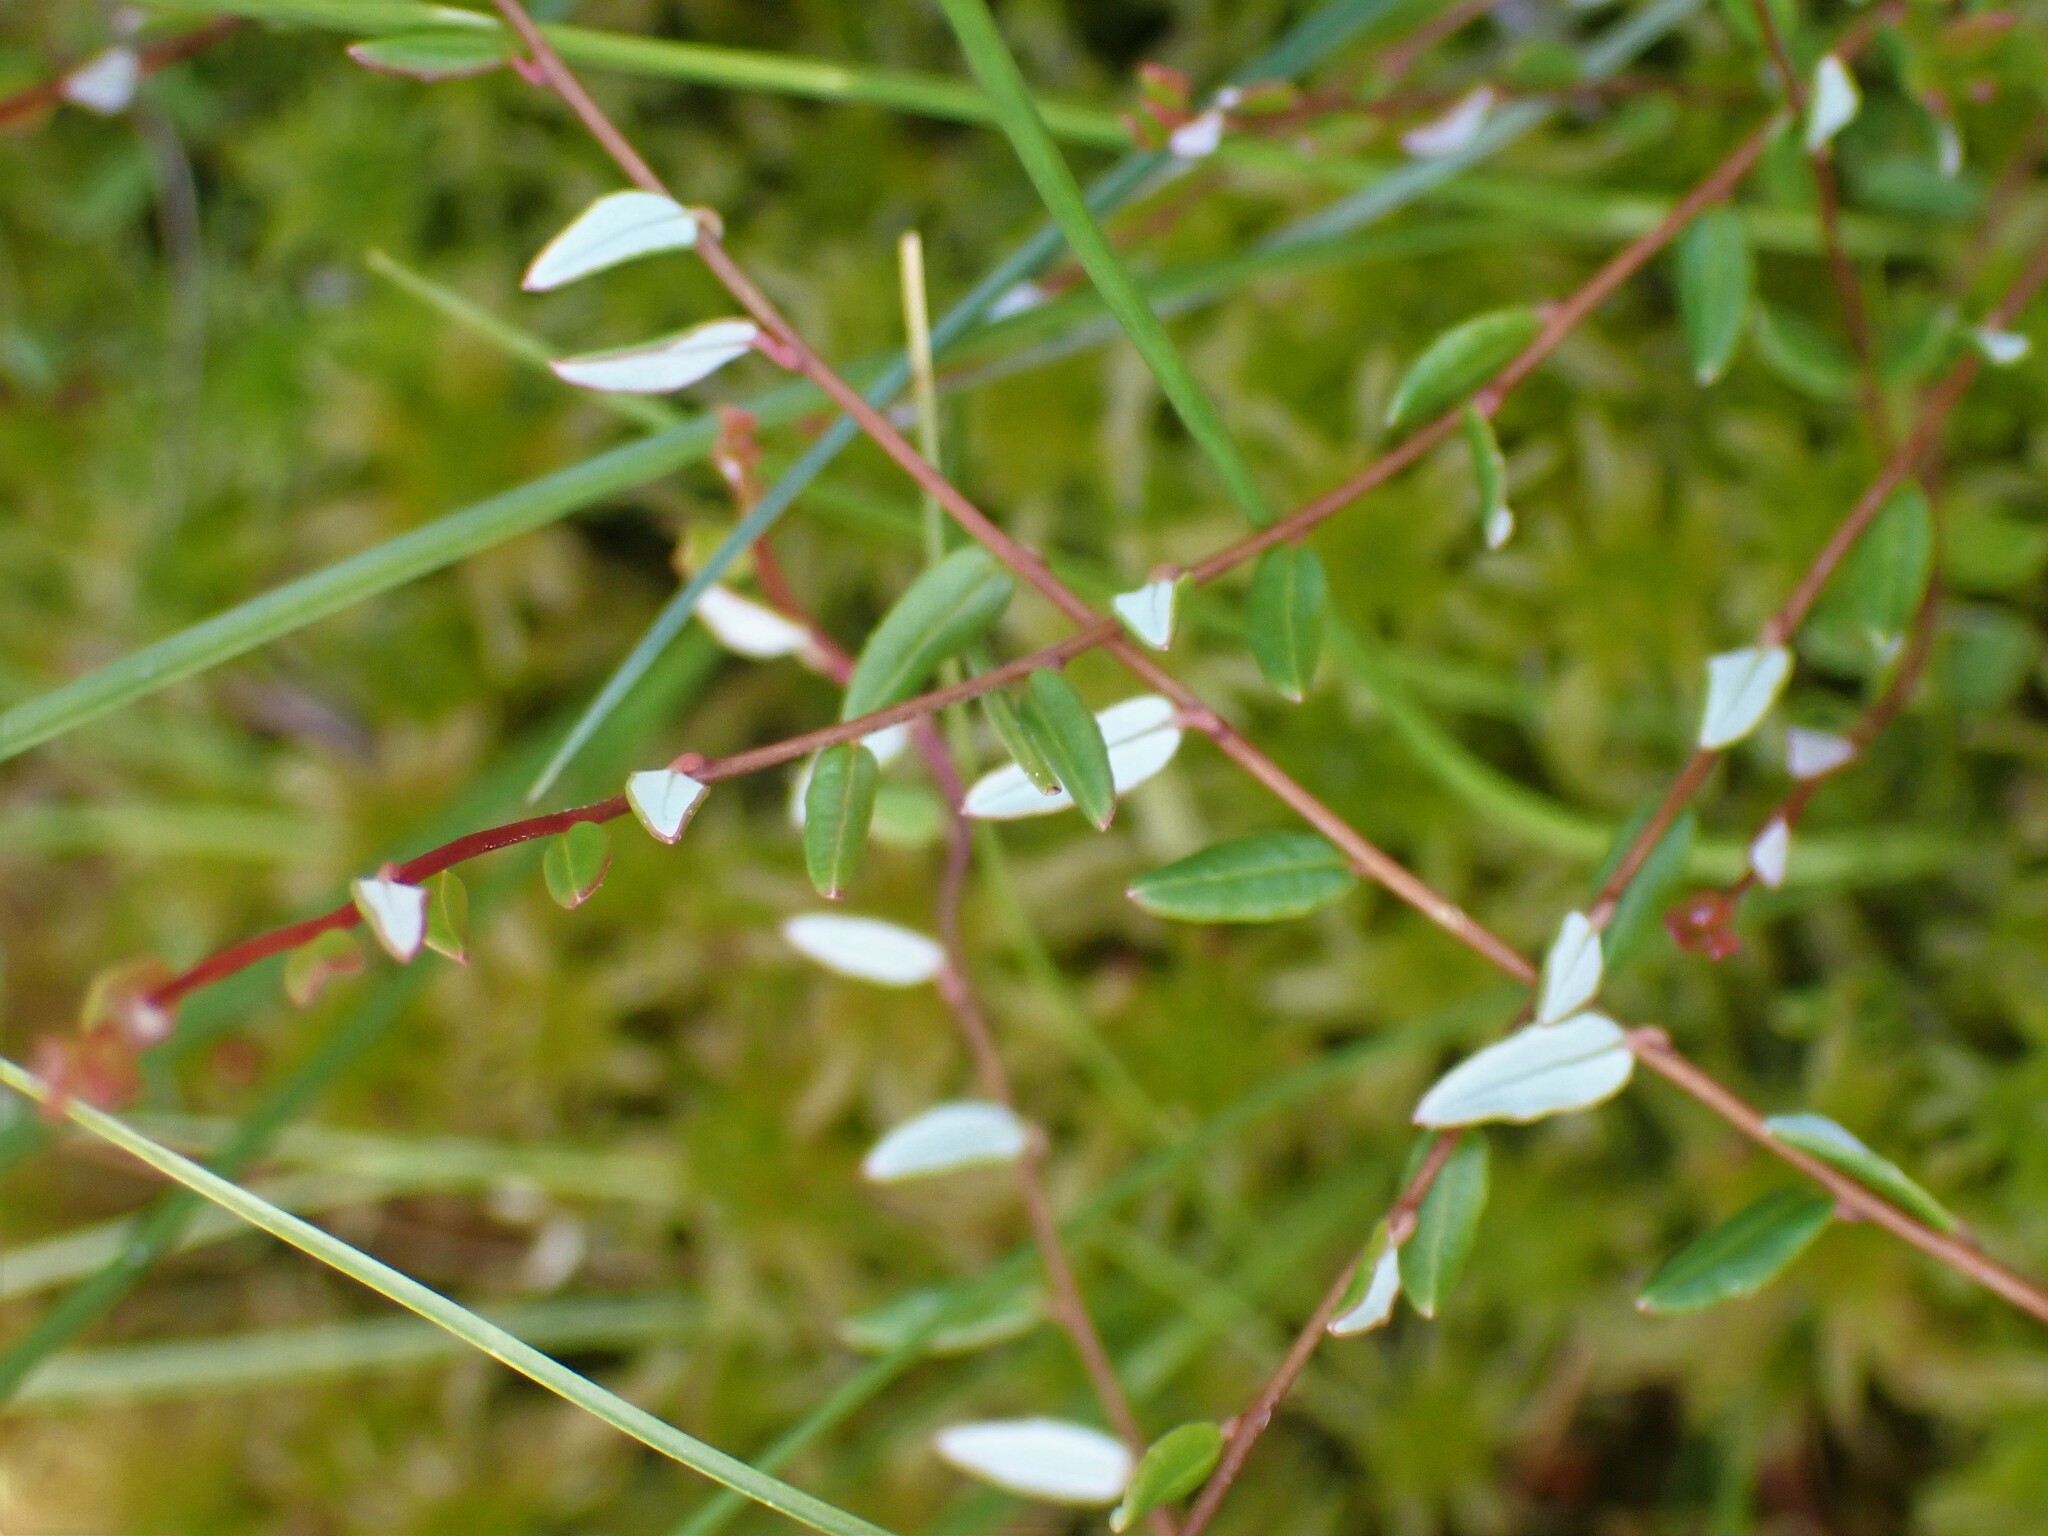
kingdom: Plantae
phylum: Tracheophyta
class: Magnoliopsida
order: Ericales
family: Ericaceae
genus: Vaccinium
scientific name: Vaccinium oxycoccos
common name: Cranberry
